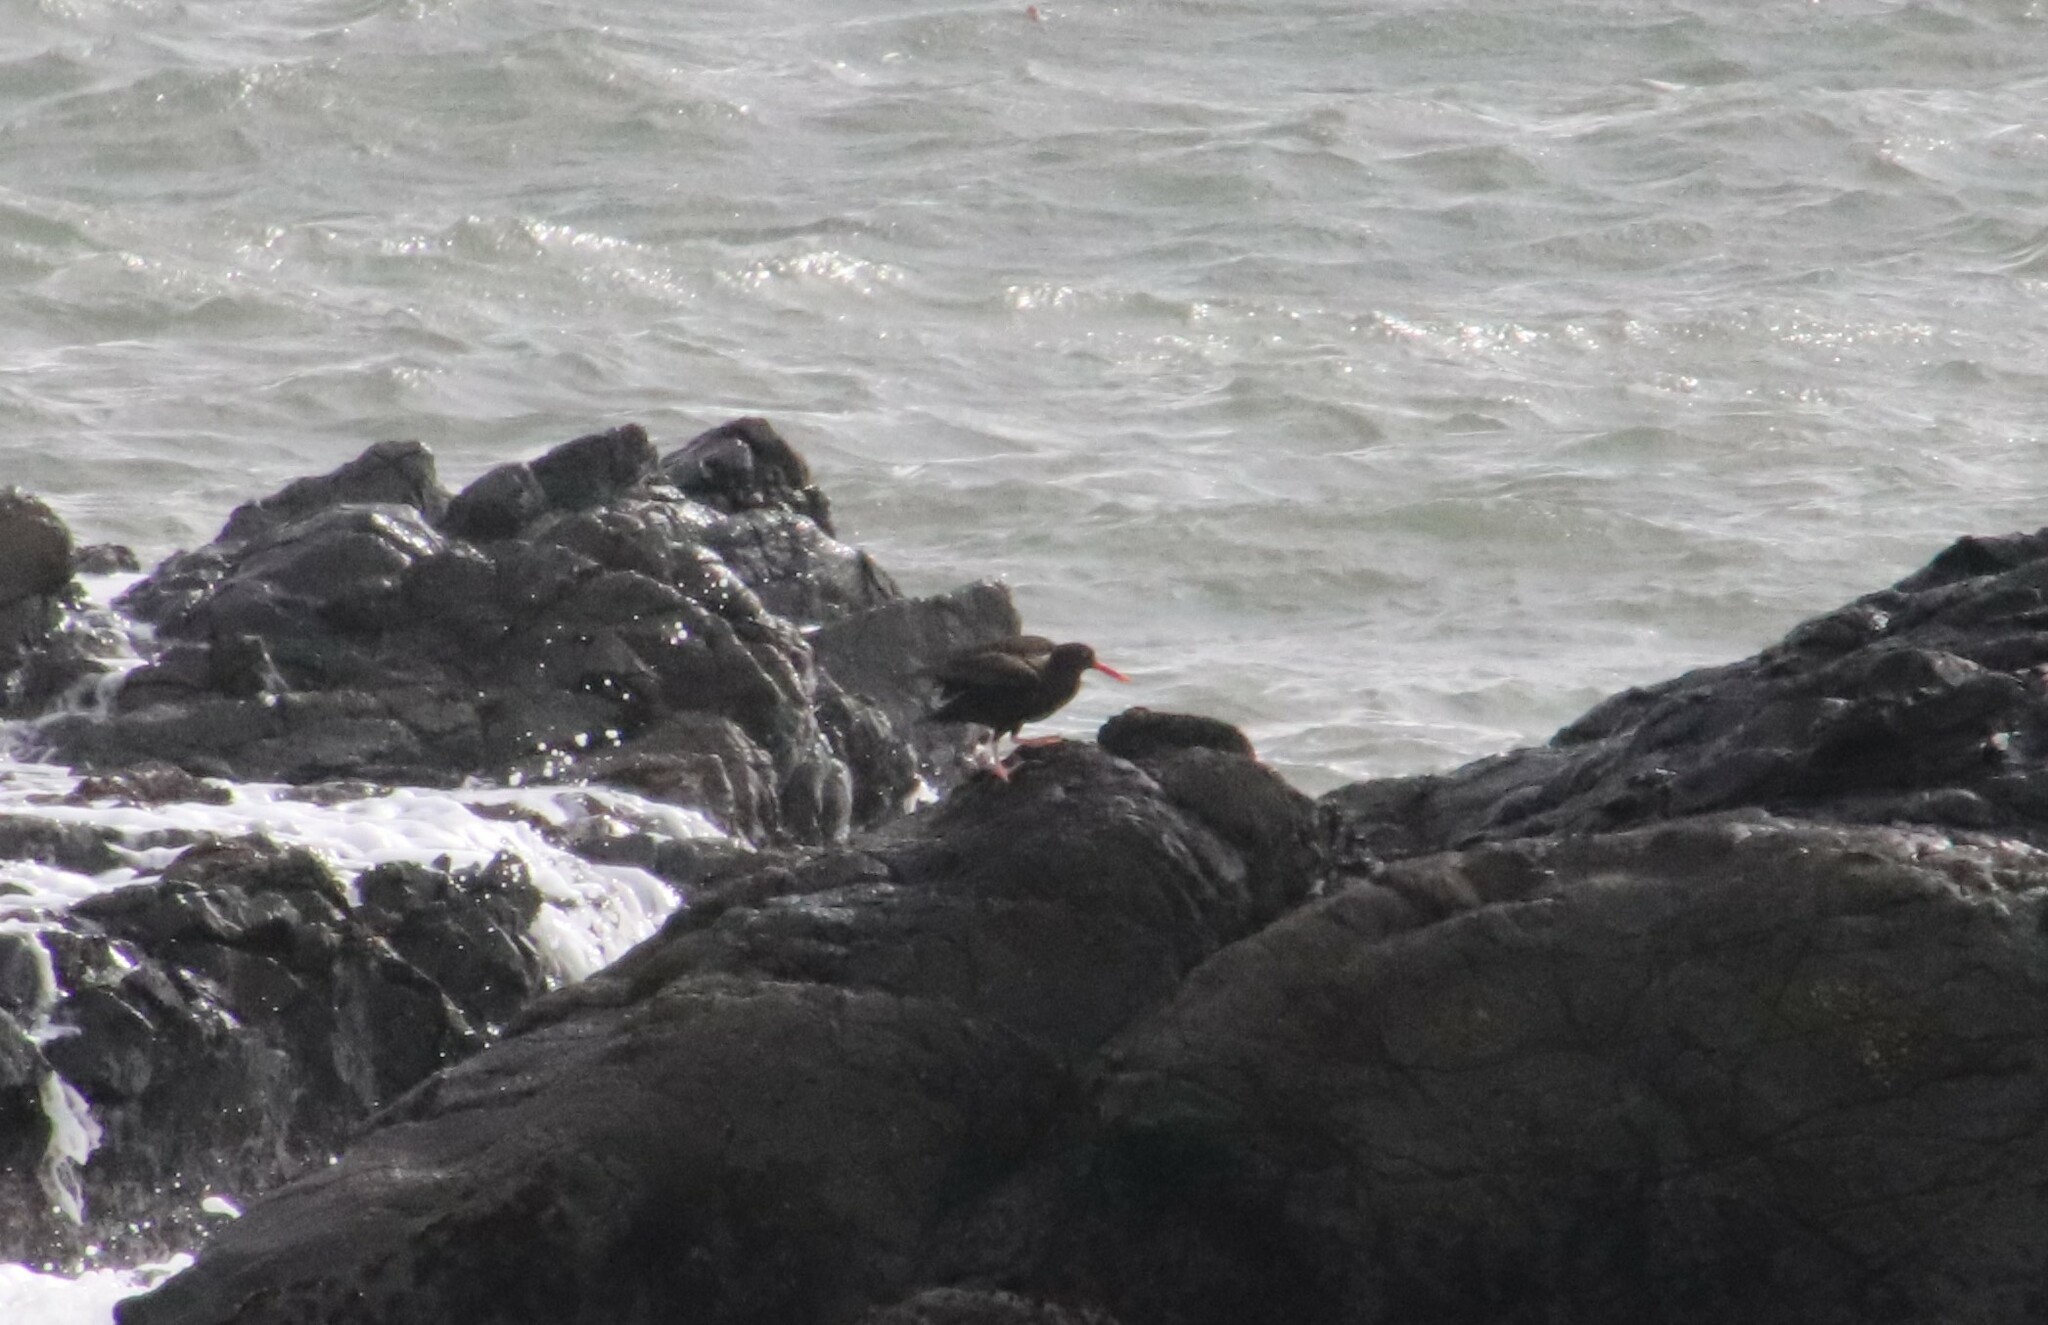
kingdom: Animalia
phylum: Chordata
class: Aves
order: Charadriiformes
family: Haematopodidae
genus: Haematopus
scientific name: Haematopus bachmani
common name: Black oystercatcher
